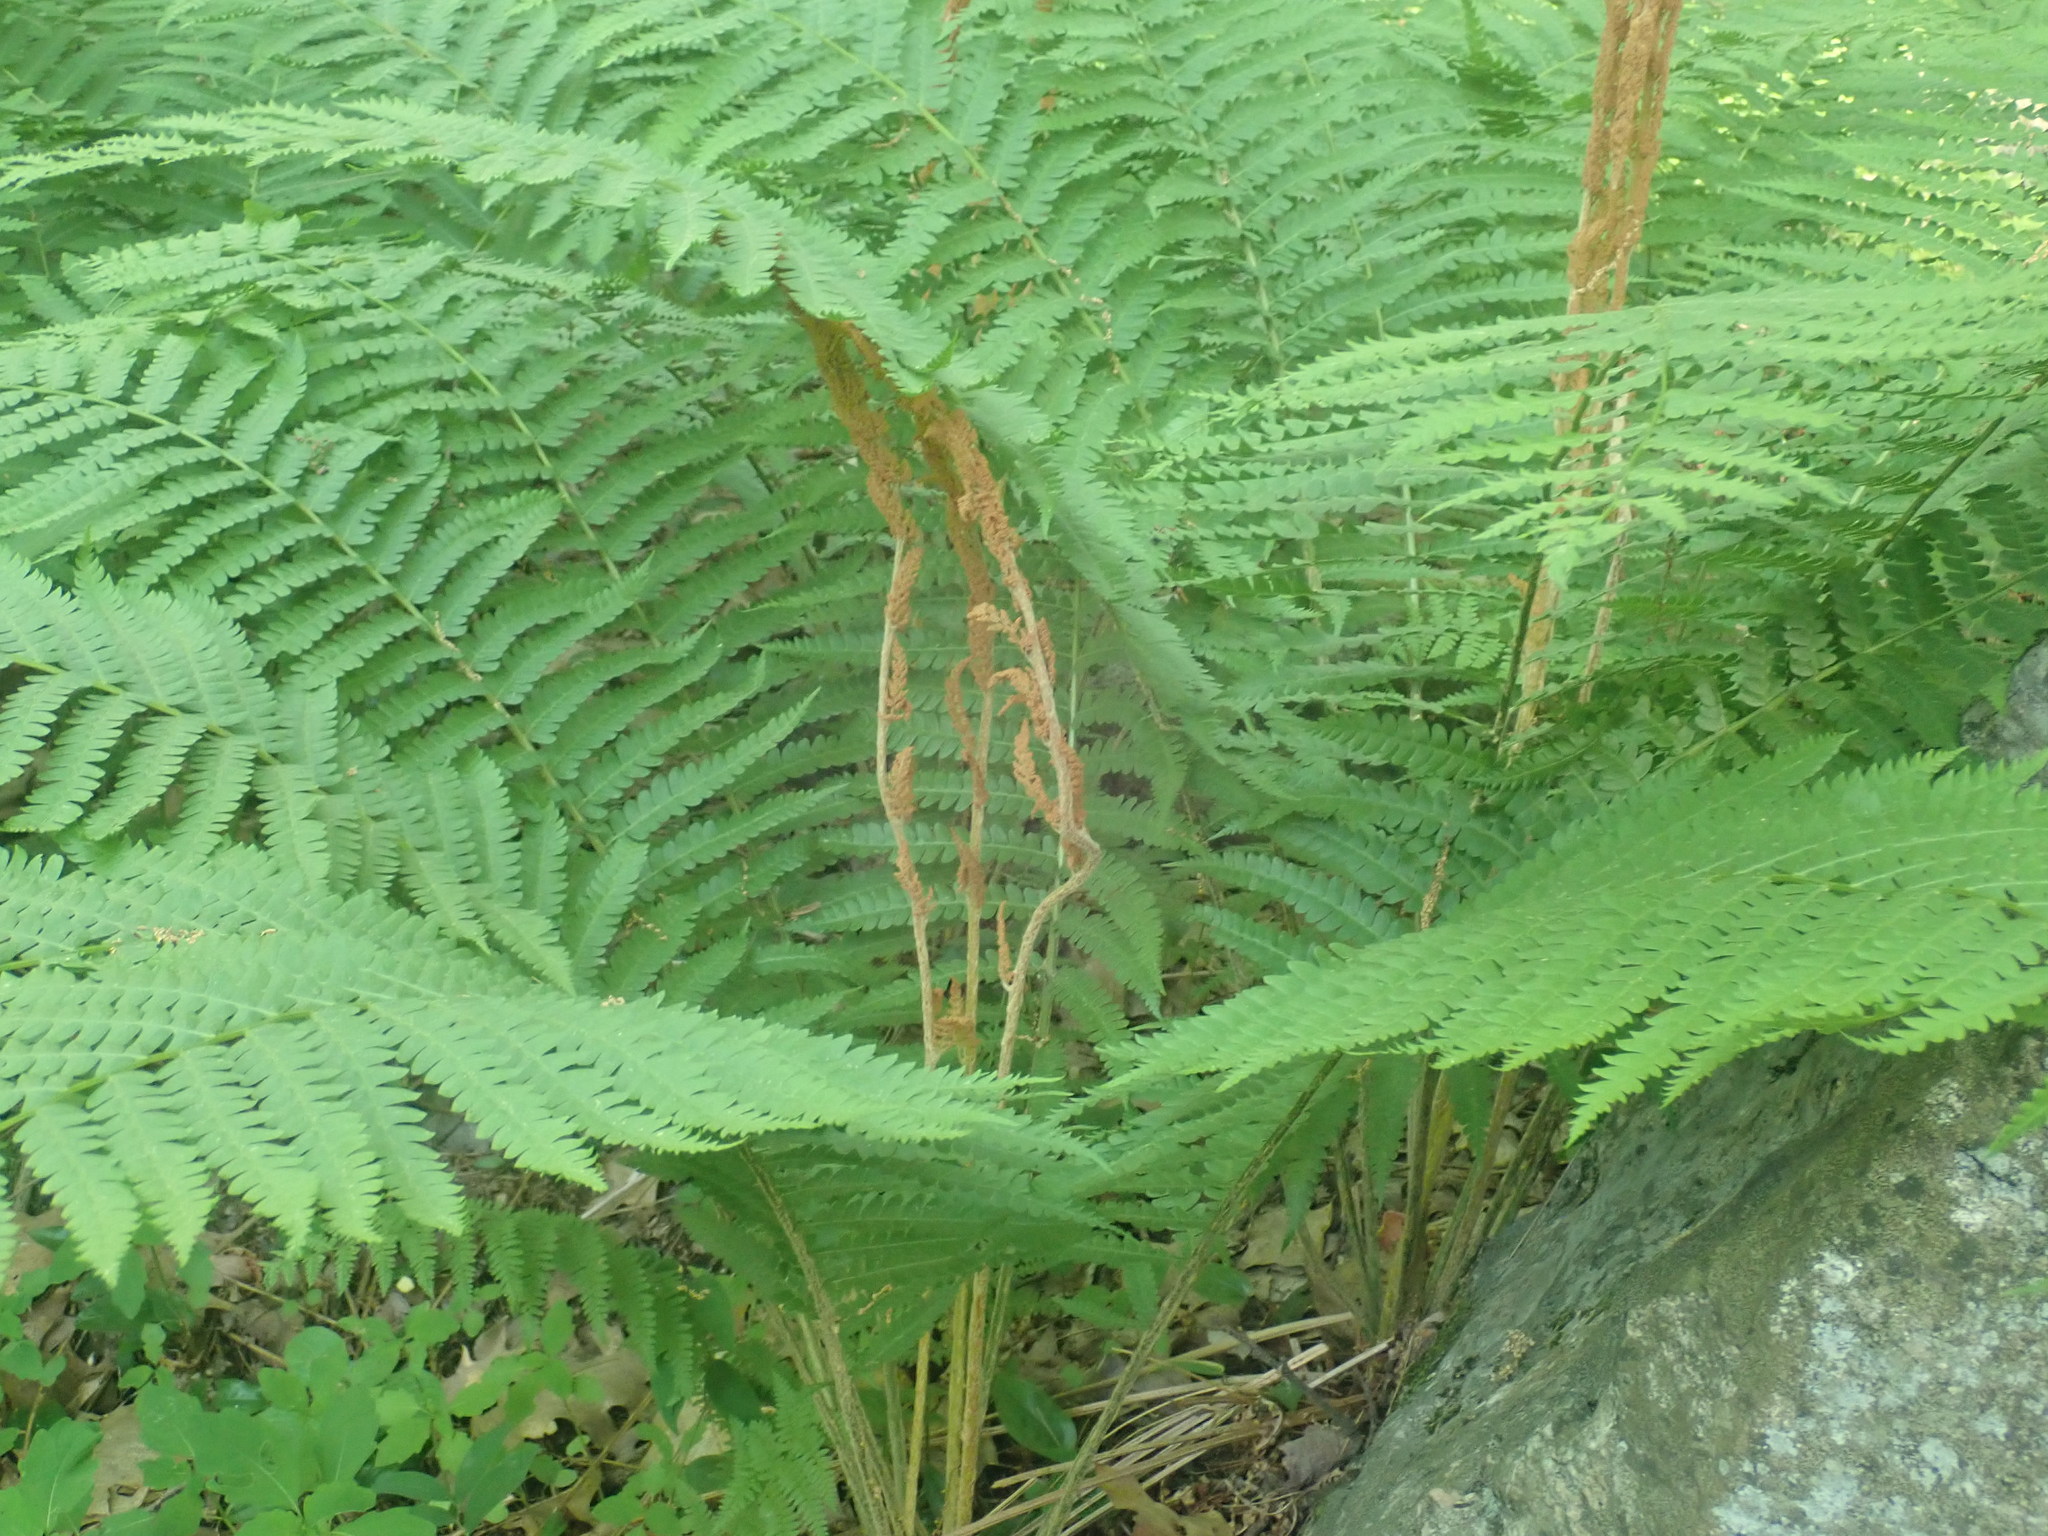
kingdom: Plantae
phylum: Tracheophyta
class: Polypodiopsida
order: Osmundales
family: Osmundaceae
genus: Osmundastrum
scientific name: Osmundastrum cinnamomeum
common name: Cinnamon fern
